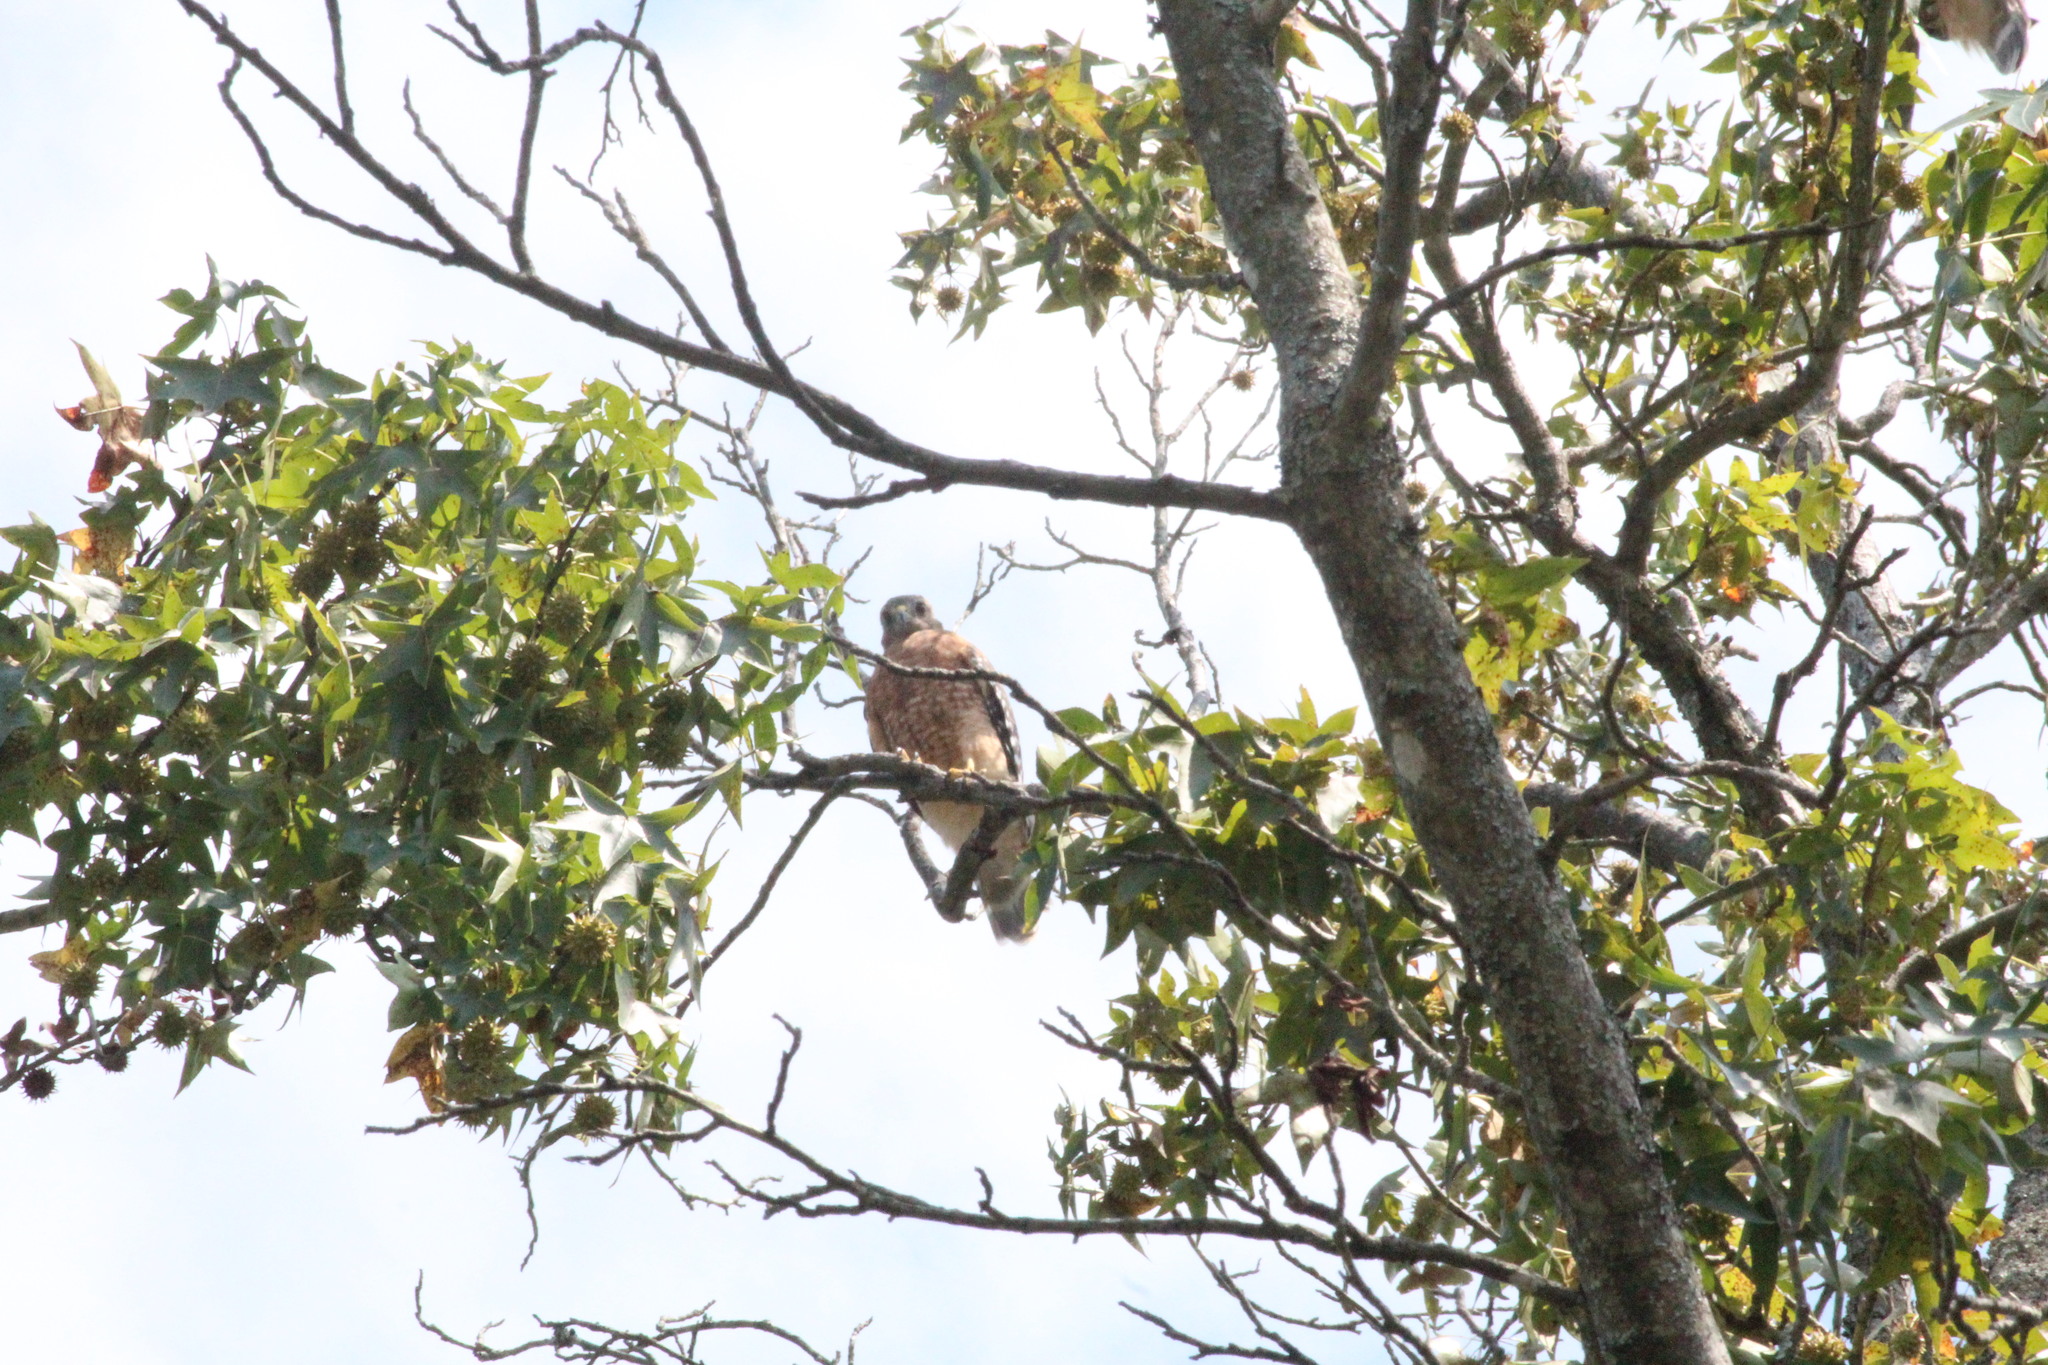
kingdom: Animalia
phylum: Chordata
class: Aves
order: Accipitriformes
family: Accipitridae
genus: Buteo
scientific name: Buteo lineatus
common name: Red-shouldered hawk
